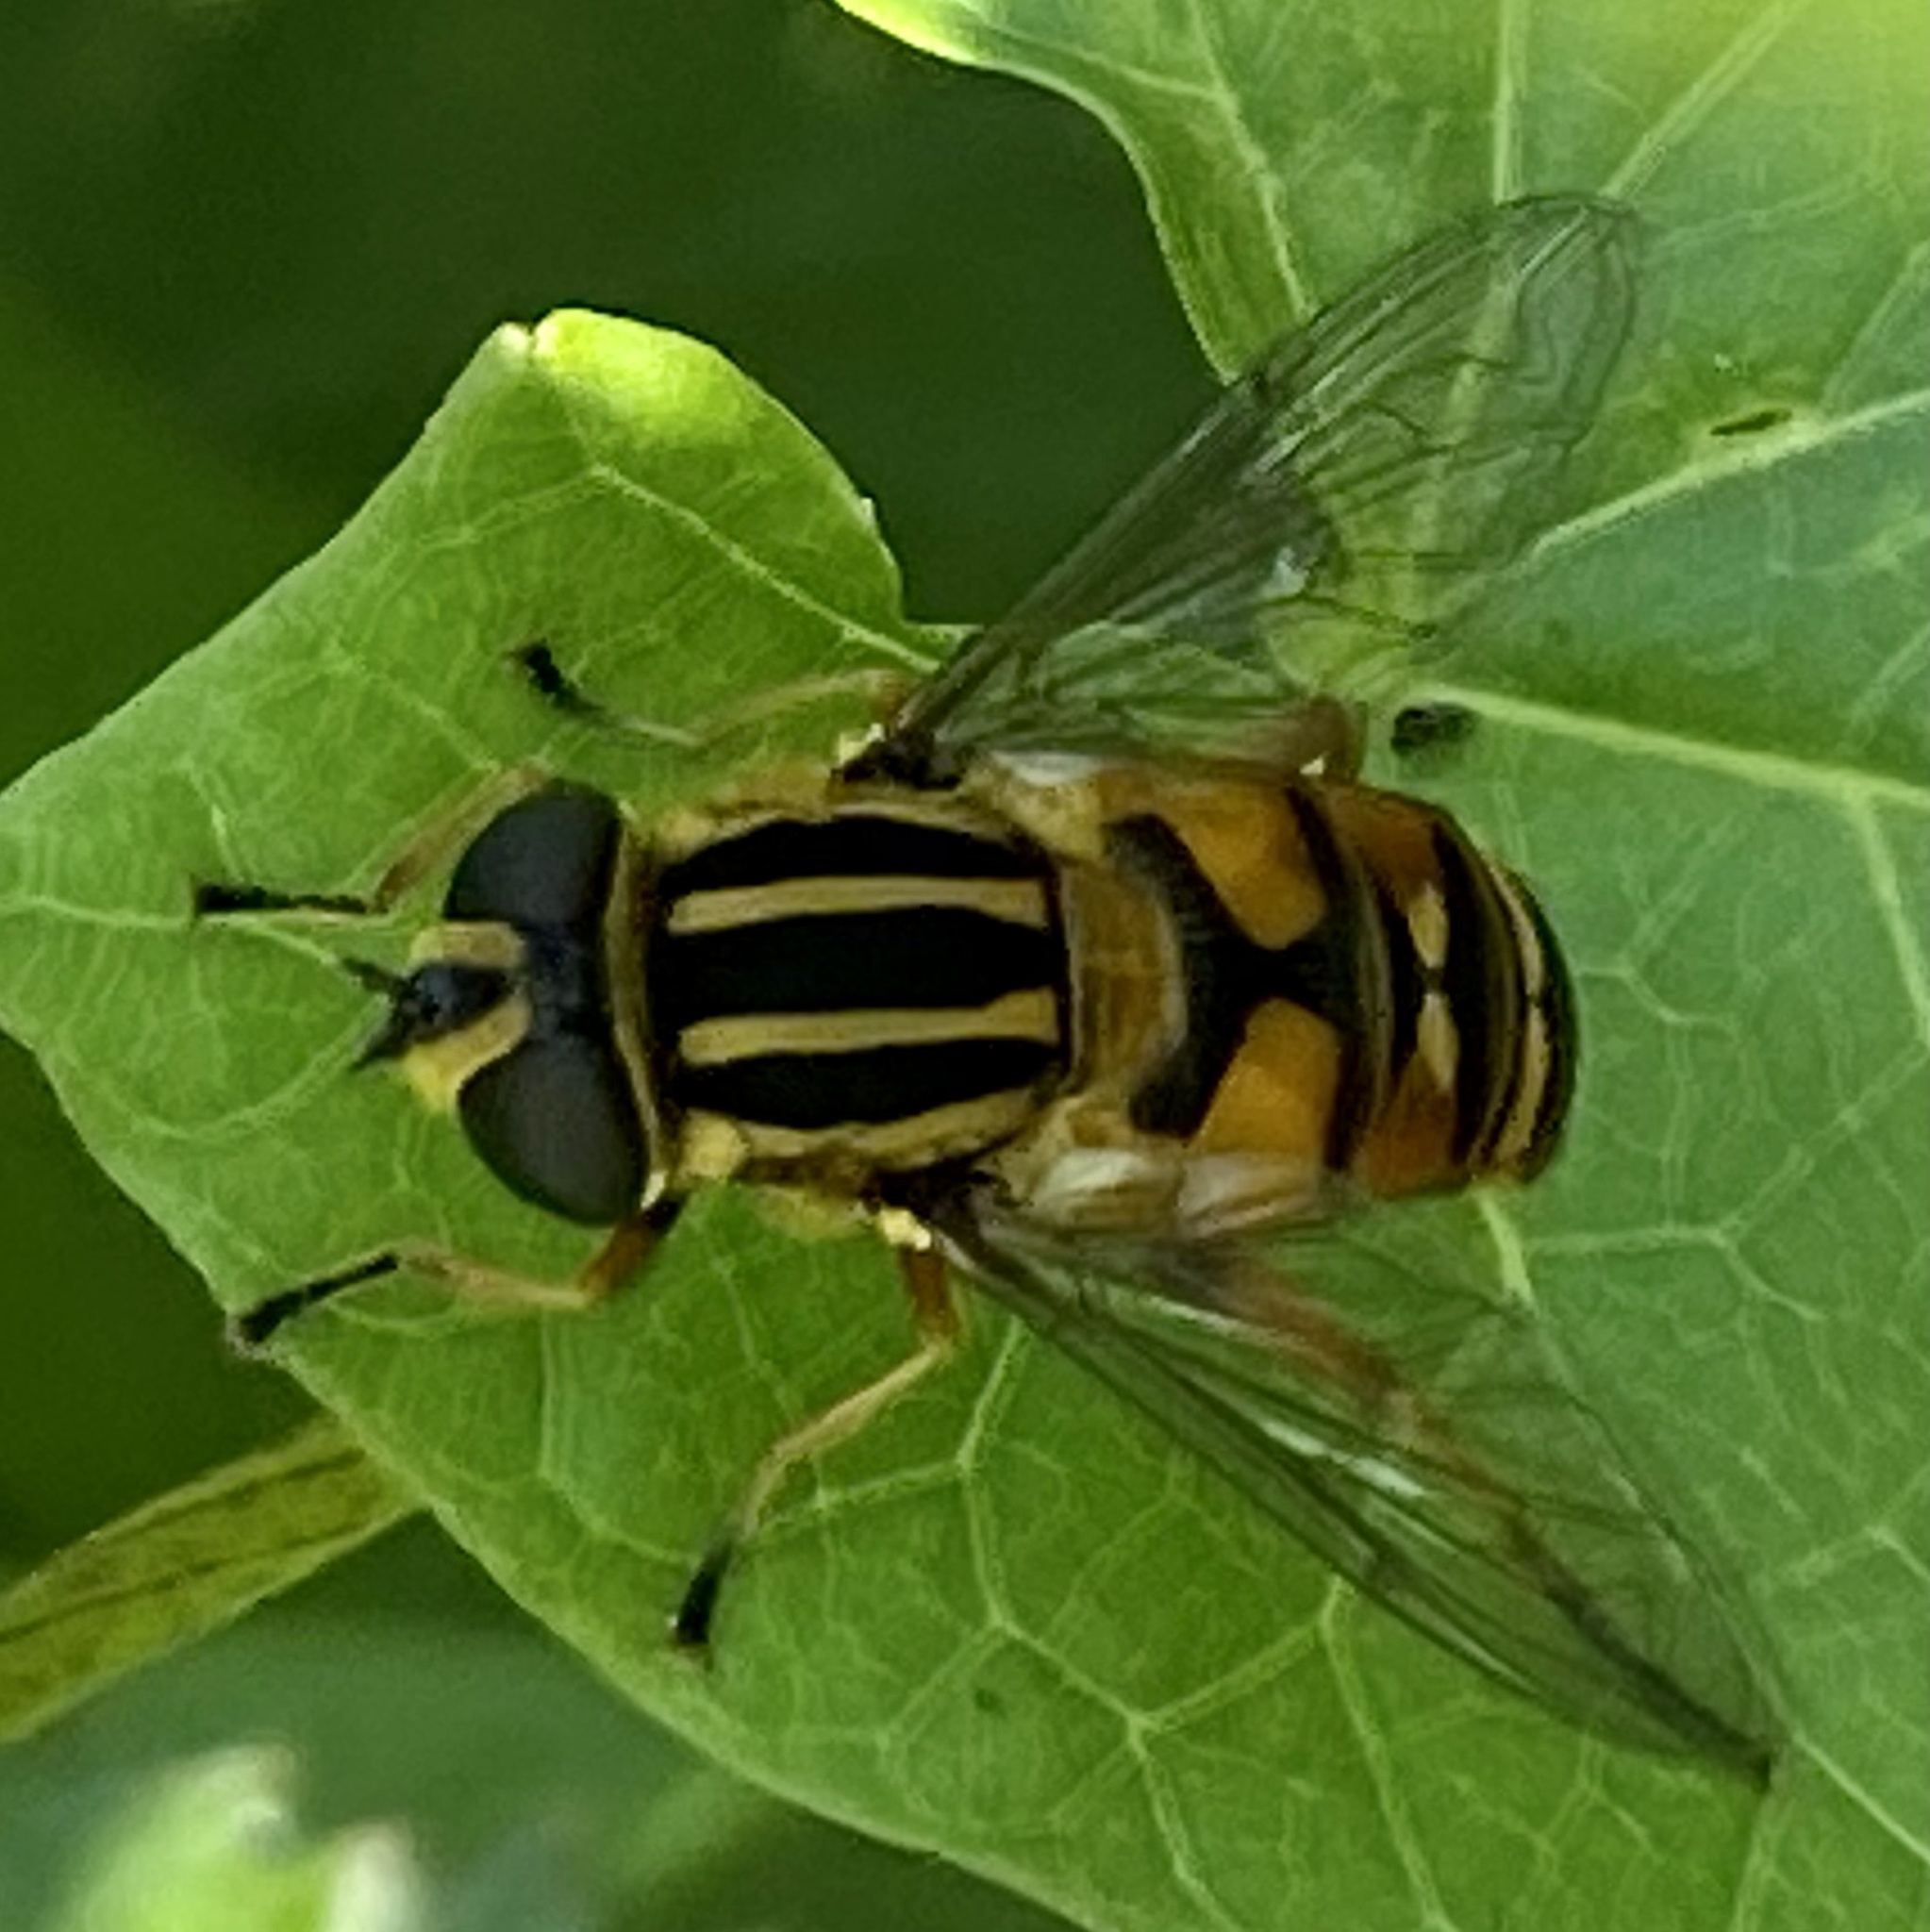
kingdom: Animalia
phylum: Arthropoda
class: Insecta
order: Diptera
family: Syrphidae
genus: Helophilus
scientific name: Helophilus pendulus
